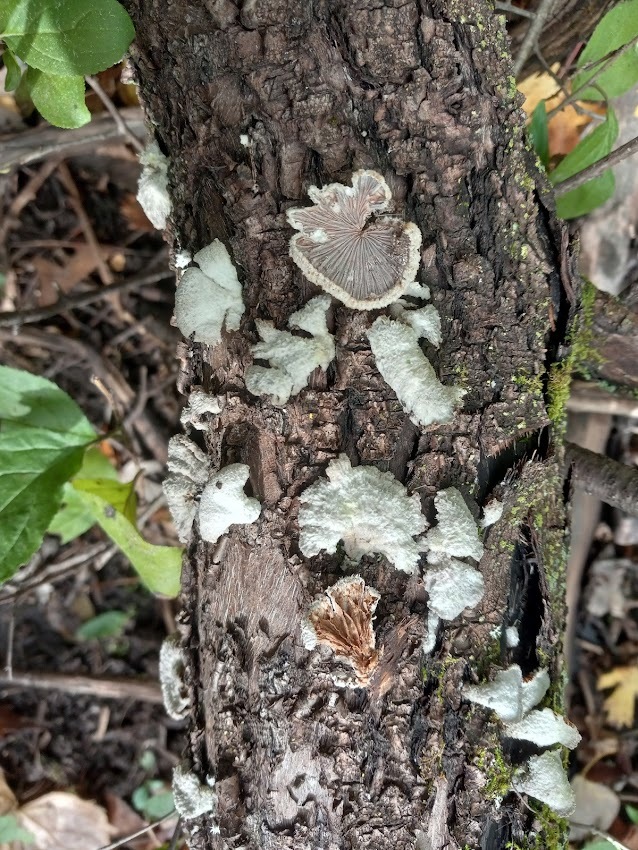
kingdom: Fungi
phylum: Basidiomycota
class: Agaricomycetes
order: Agaricales
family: Schizophyllaceae
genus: Schizophyllum
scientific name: Schizophyllum commune
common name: Common porecrust
